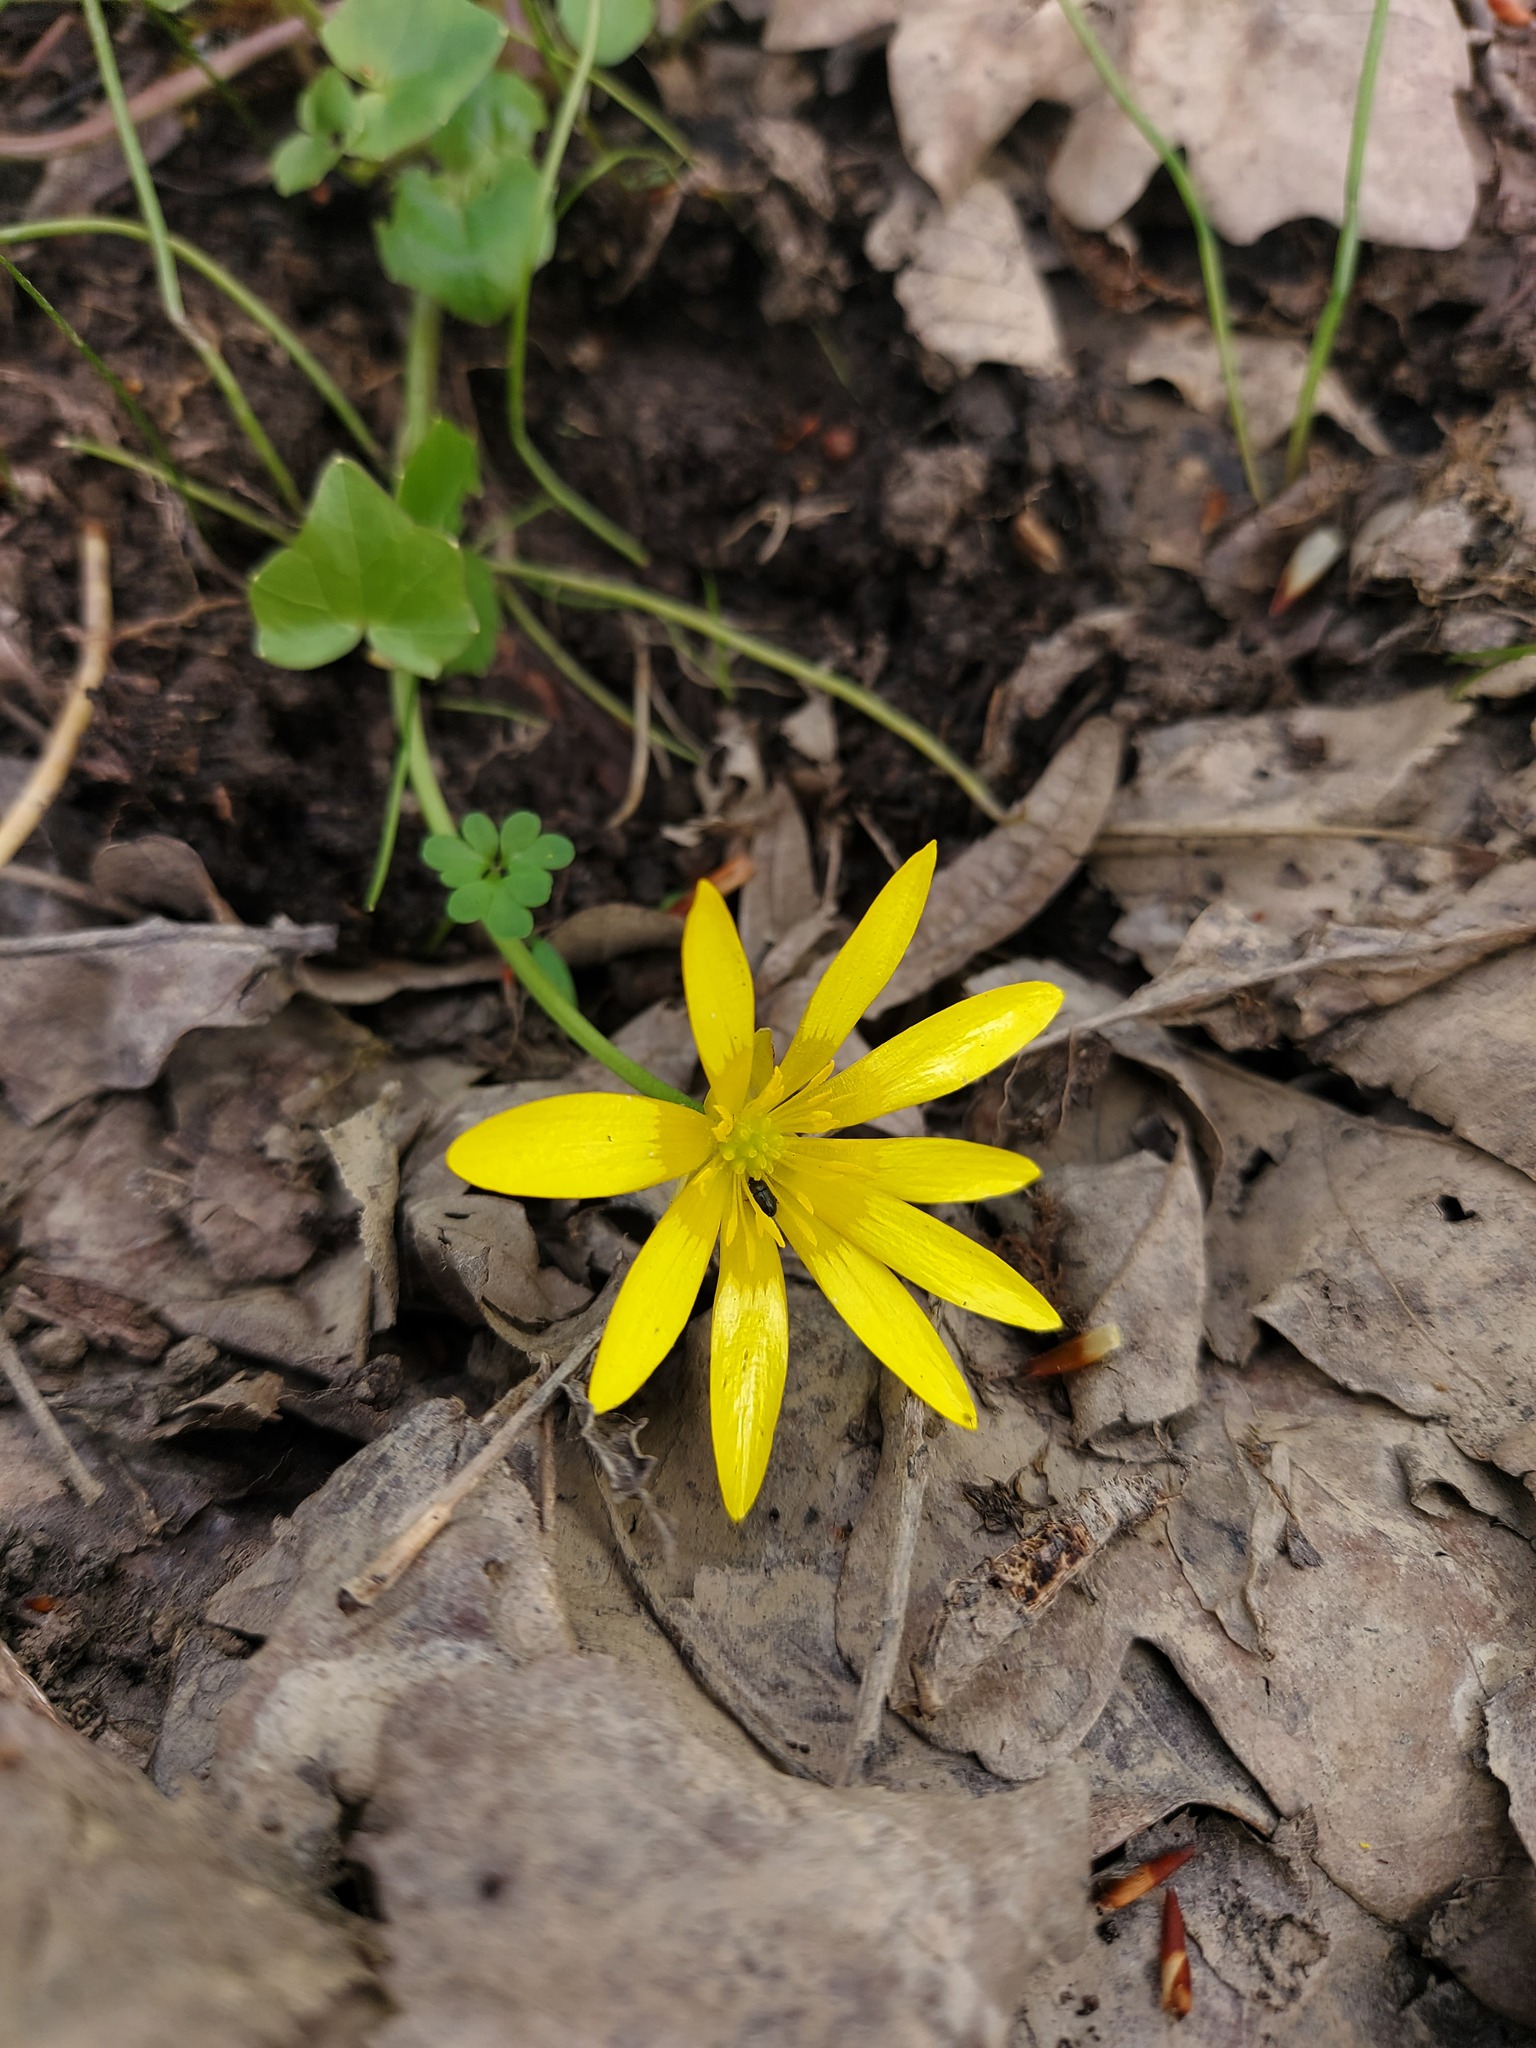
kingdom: Plantae
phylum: Tracheophyta
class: Magnoliopsida
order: Ranunculales
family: Ranunculaceae
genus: Ficaria
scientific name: Ficaria verna
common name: Lesser celandine
